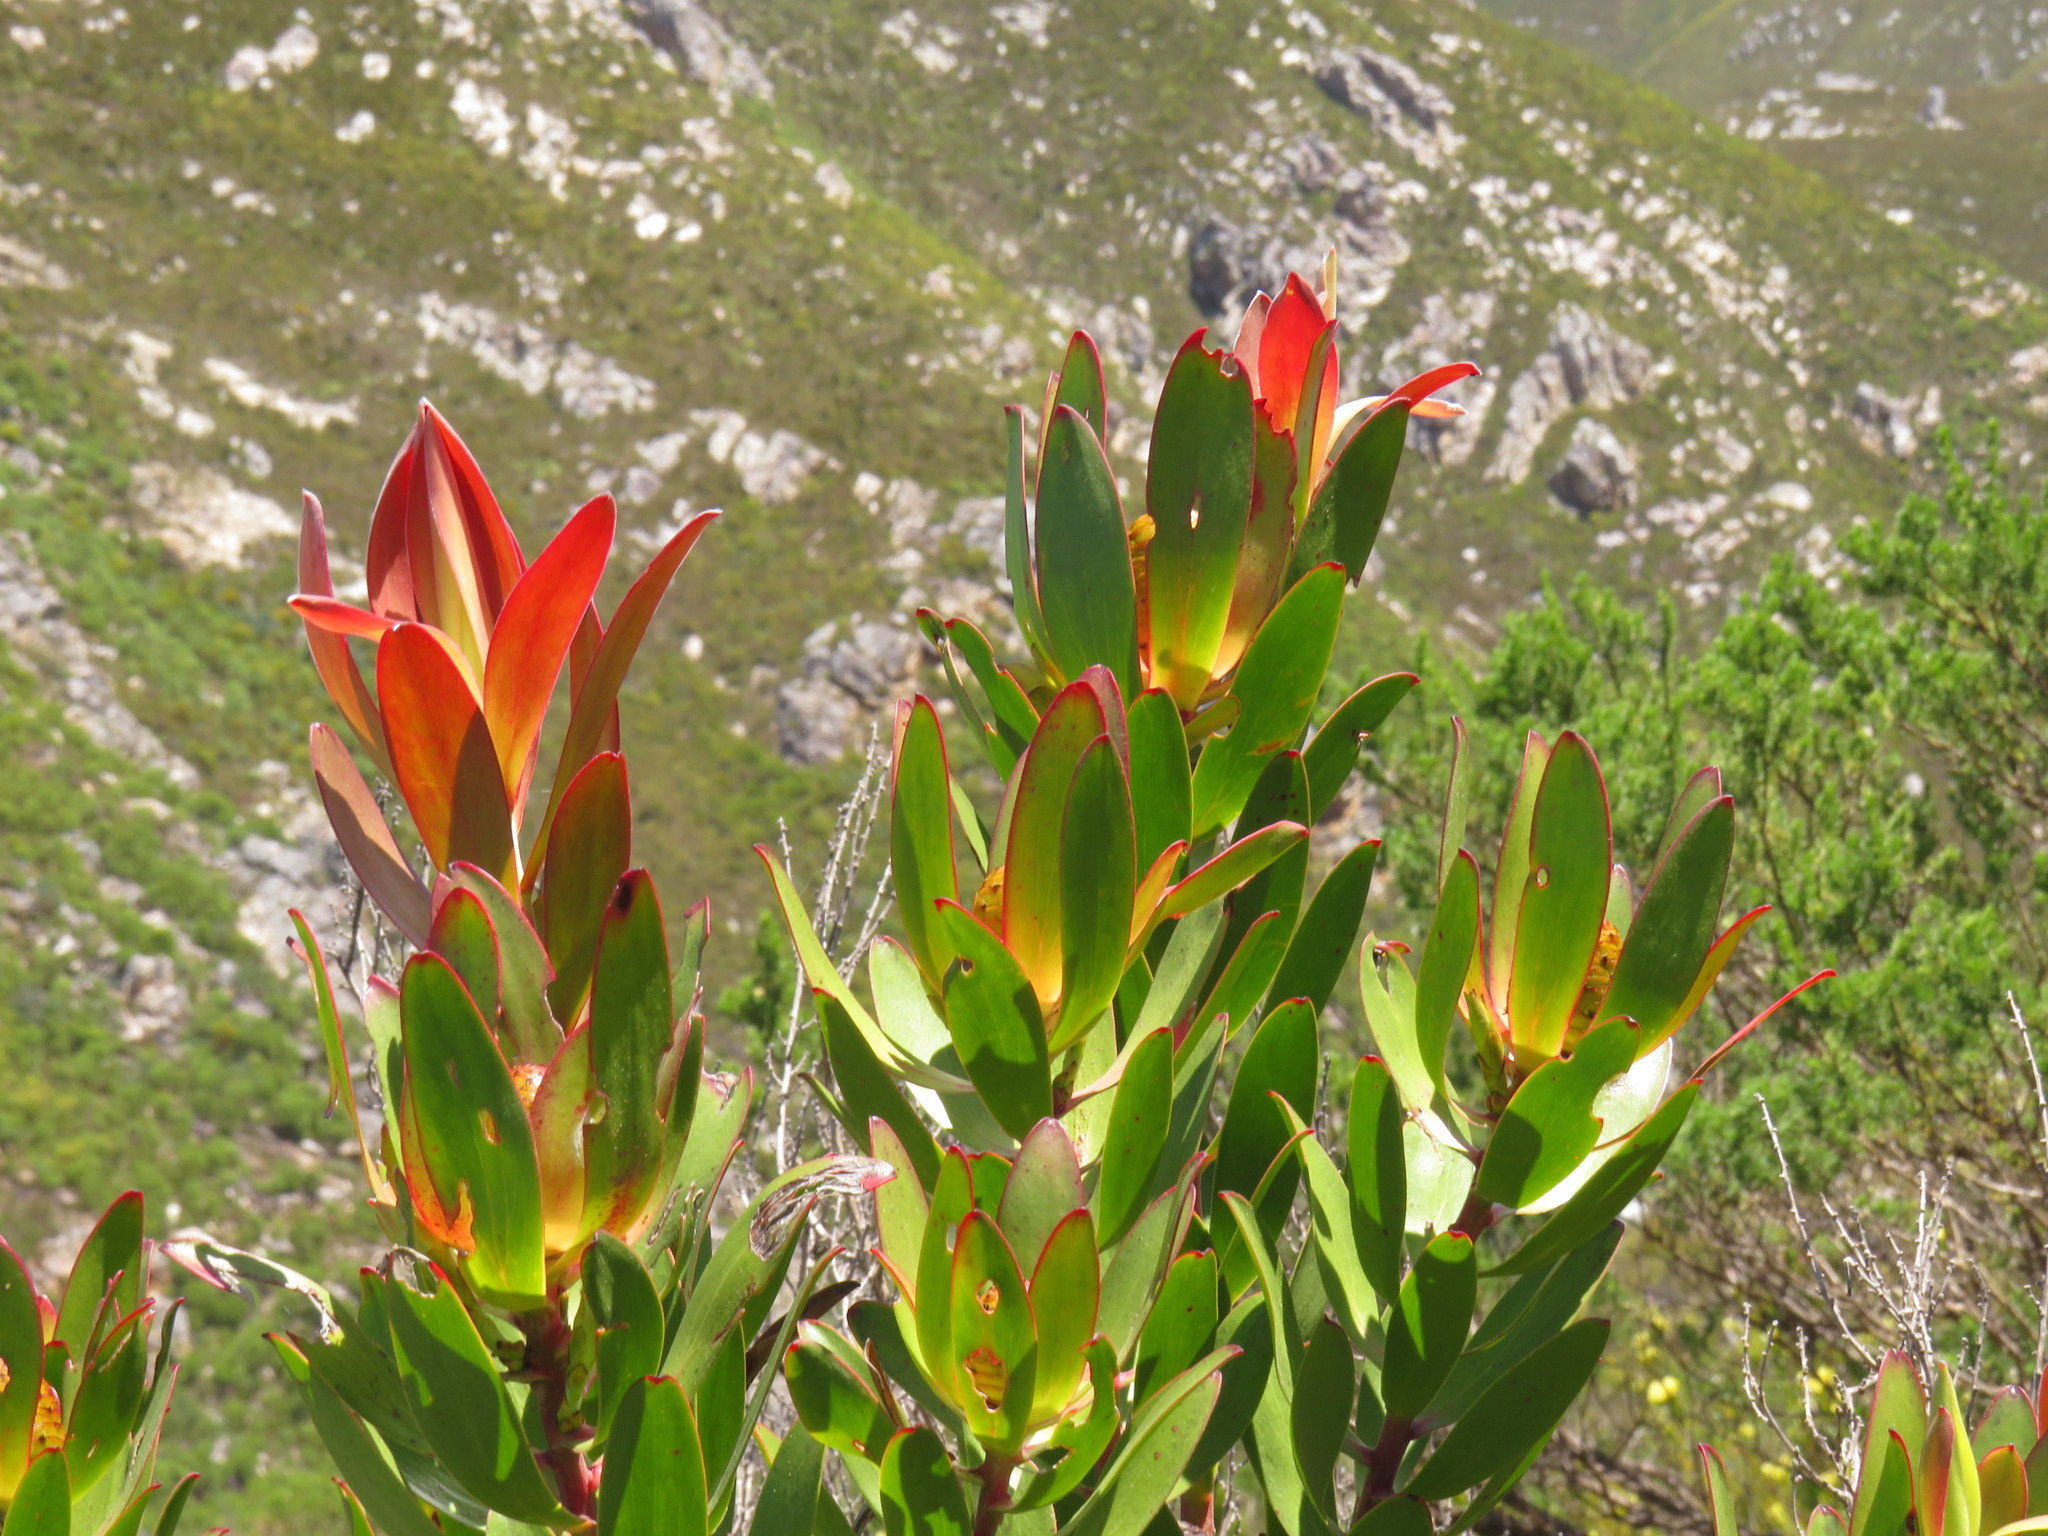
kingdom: Plantae
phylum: Tracheophyta
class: Magnoliopsida
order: Proteales
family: Proteaceae
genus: Leucadendron
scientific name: Leucadendron gandogeri
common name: Broad-leaf conebush
